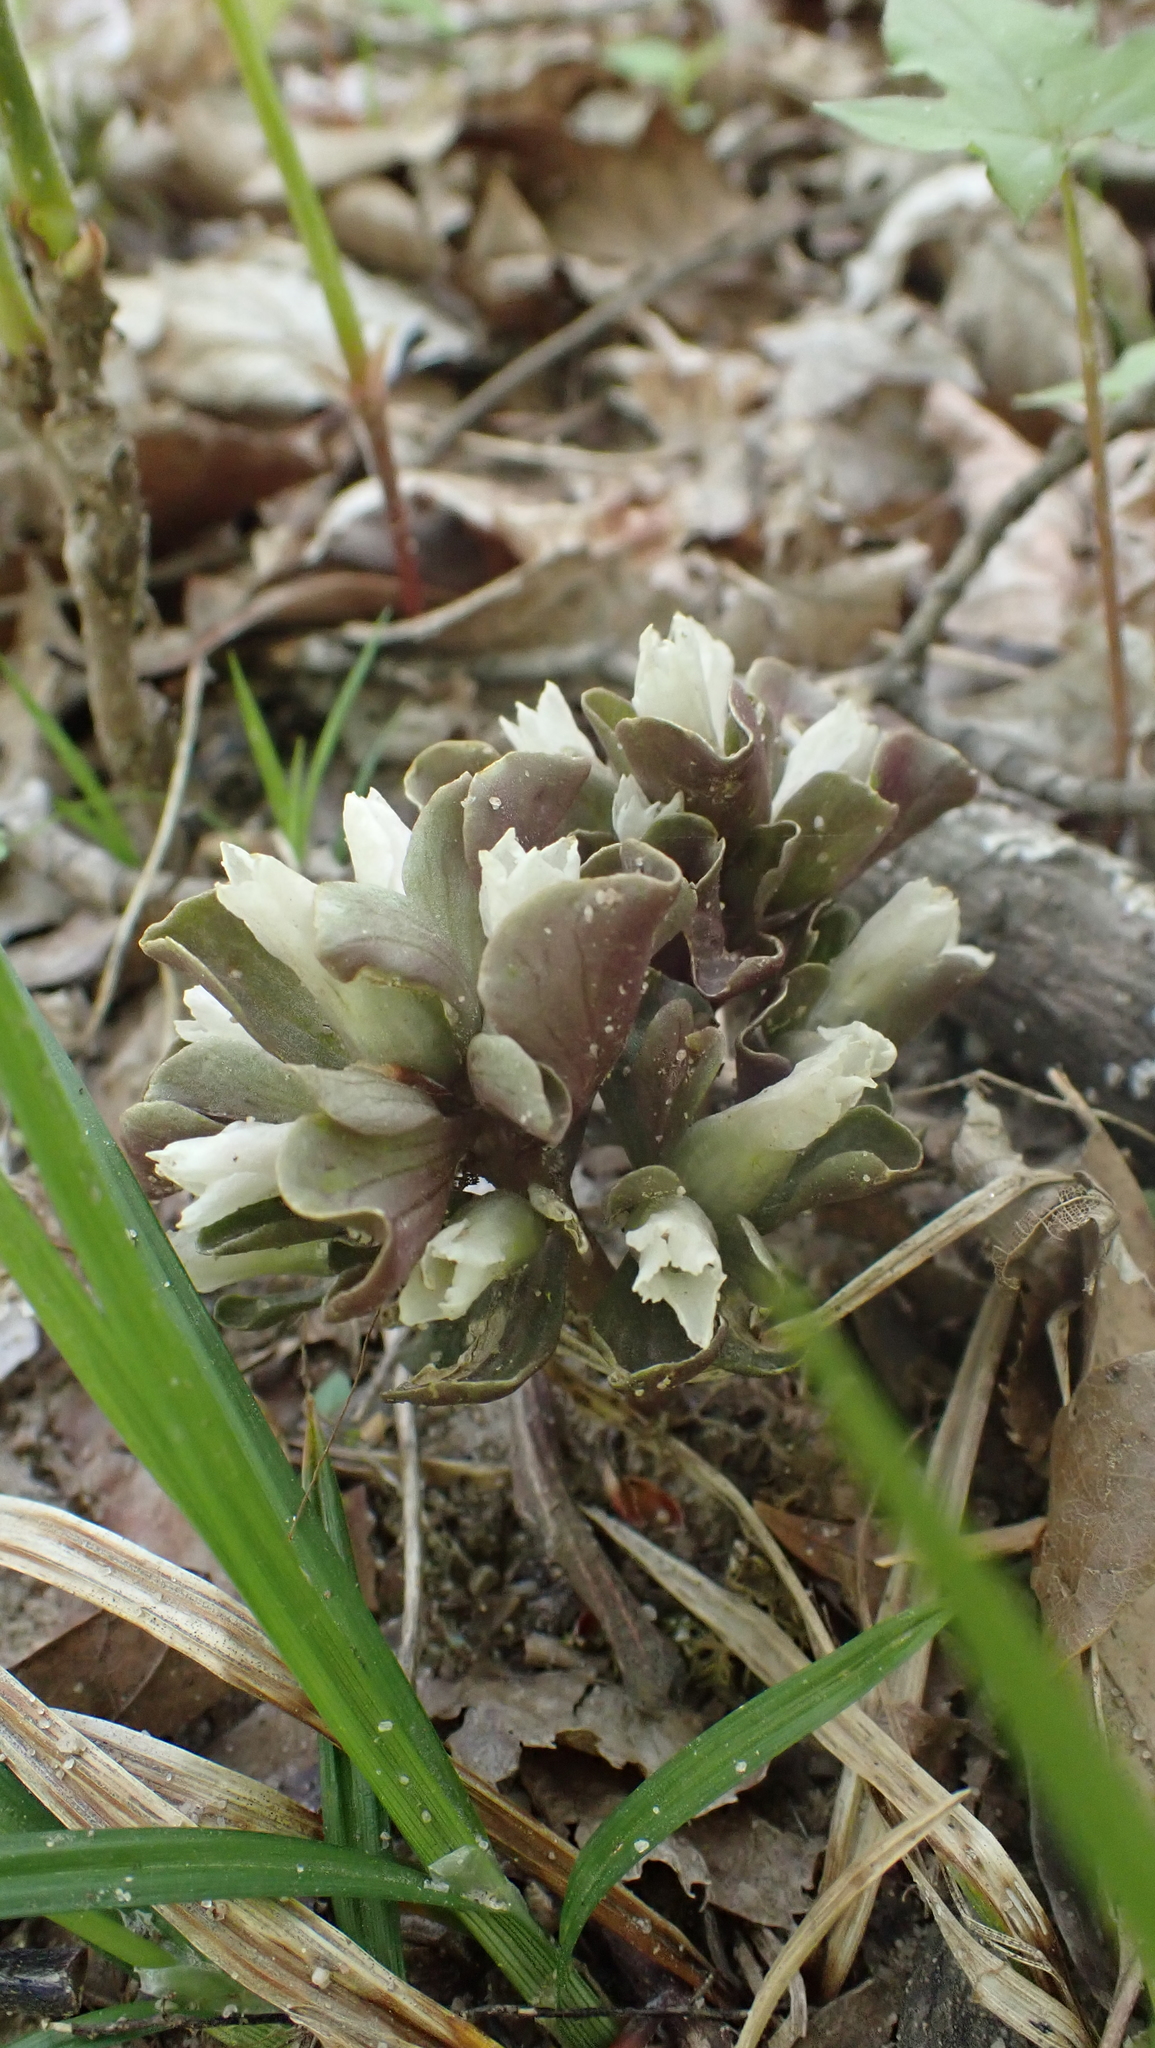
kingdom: Plantae
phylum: Tracheophyta
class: Magnoliopsida
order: Gentianales
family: Gentianaceae
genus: Obolaria
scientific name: Obolaria virginica
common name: Pennywort
